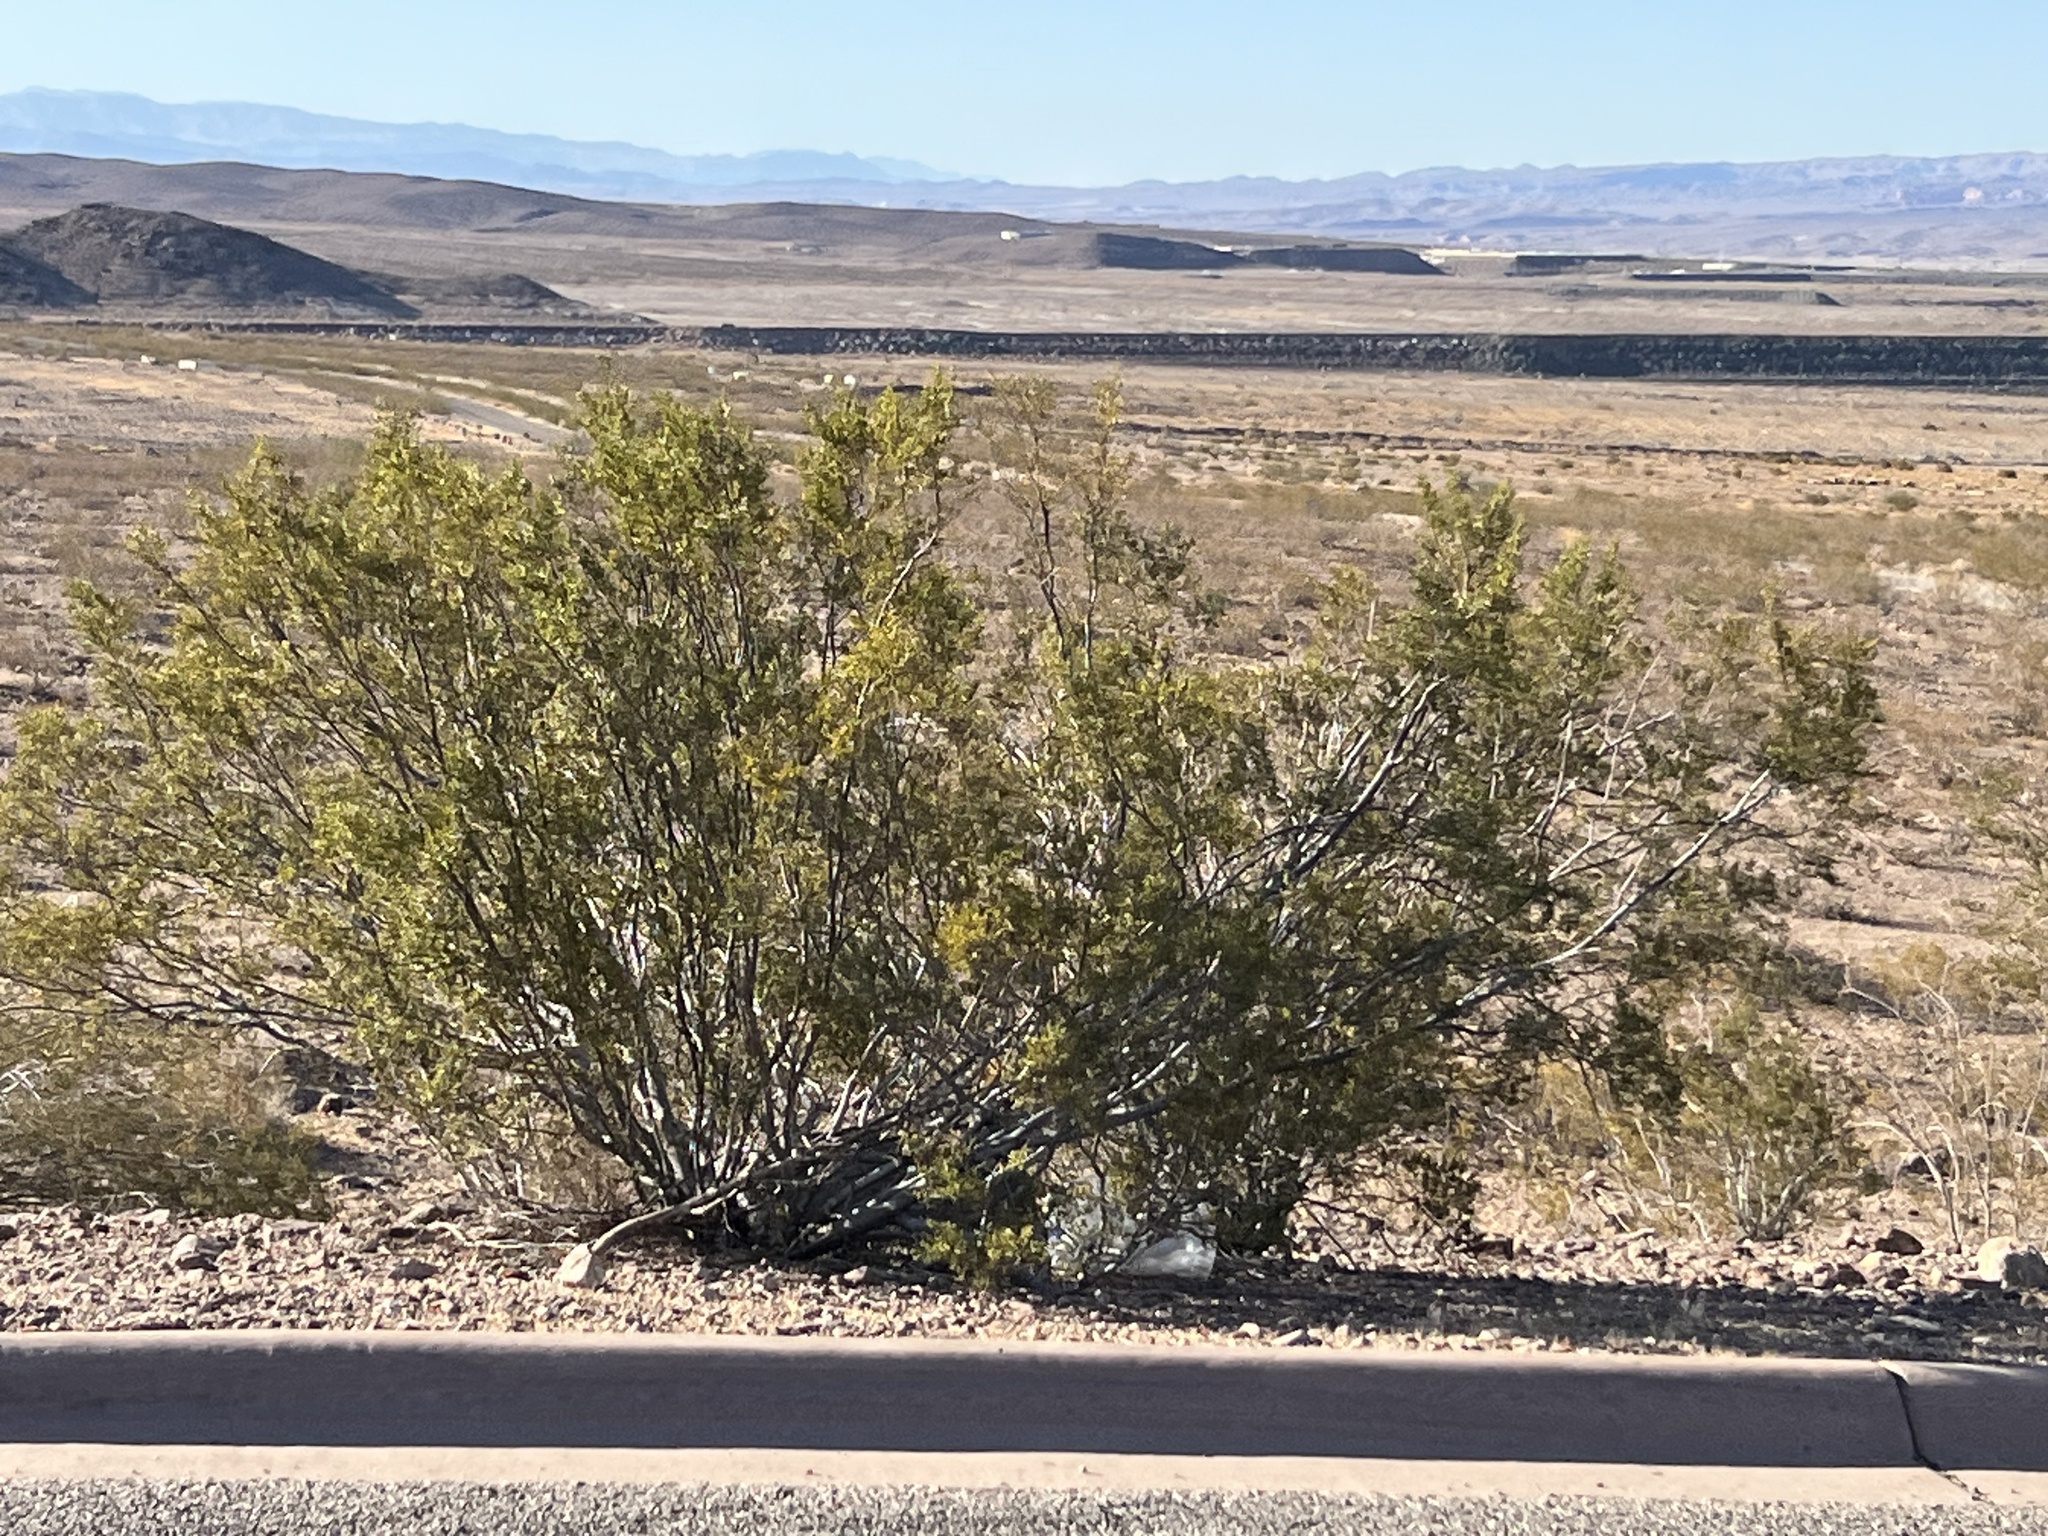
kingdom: Plantae
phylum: Tracheophyta
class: Magnoliopsida
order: Zygophyllales
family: Zygophyllaceae
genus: Larrea
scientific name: Larrea tridentata
